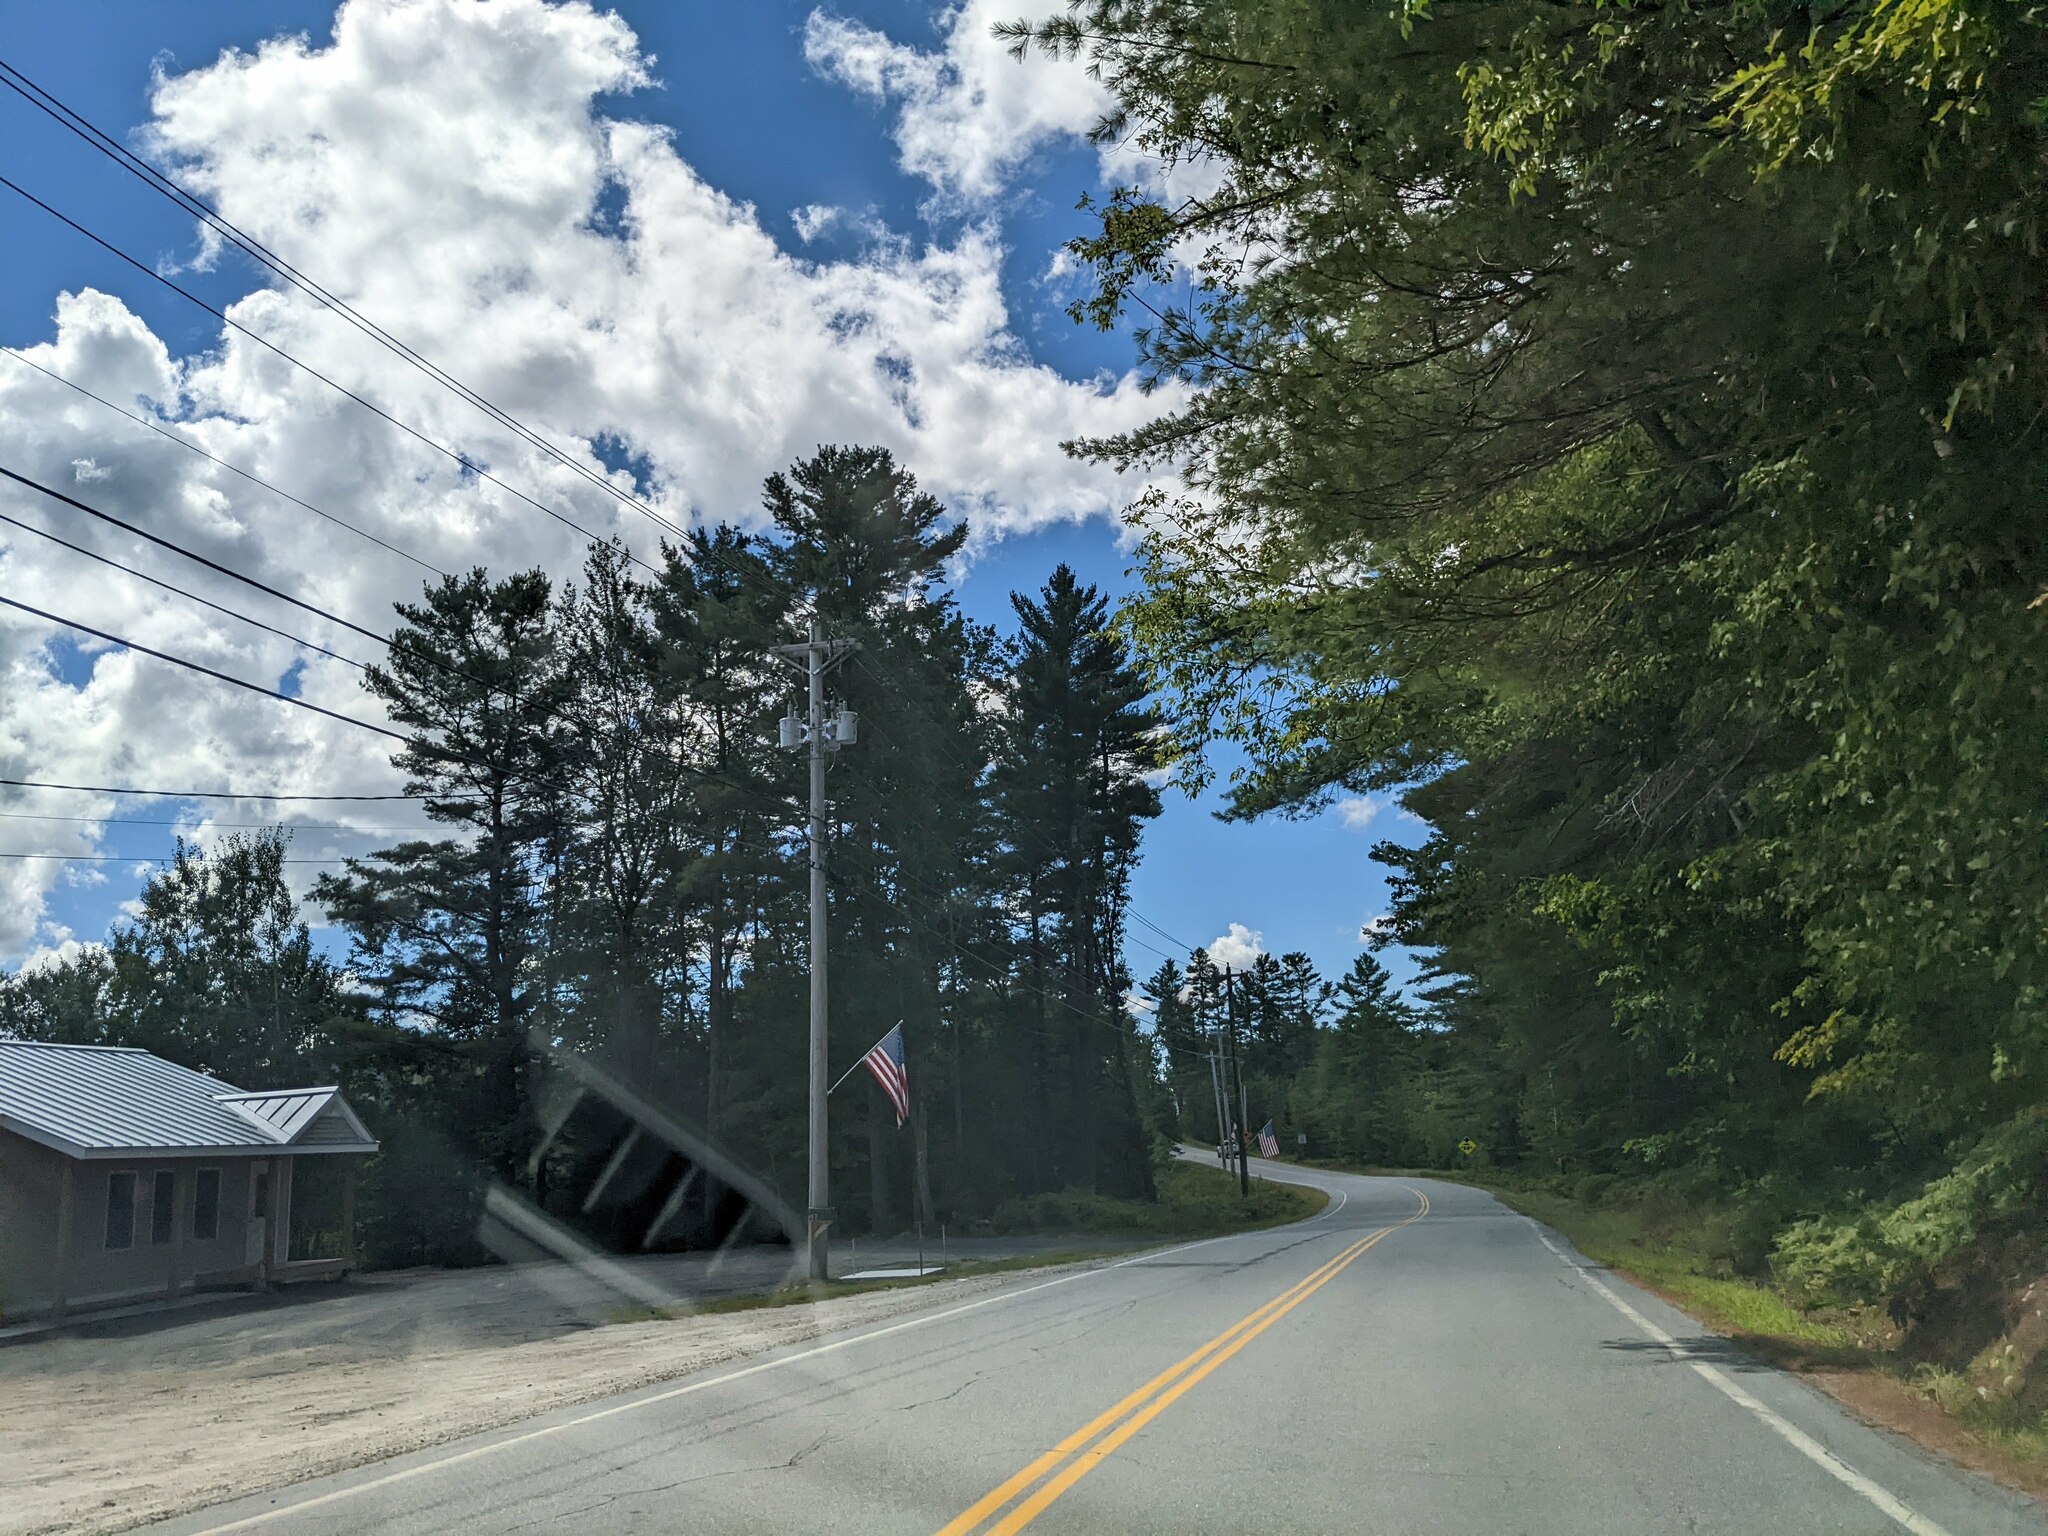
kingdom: Plantae
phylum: Tracheophyta
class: Pinopsida
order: Pinales
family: Pinaceae
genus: Pinus
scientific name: Pinus strobus
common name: Weymouth pine
